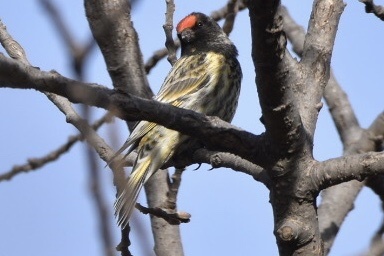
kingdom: Animalia
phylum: Chordata
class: Aves
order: Passeriformes
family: Fringillidae
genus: Serinus
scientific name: Serinus pusillus
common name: Red-fronted serin
